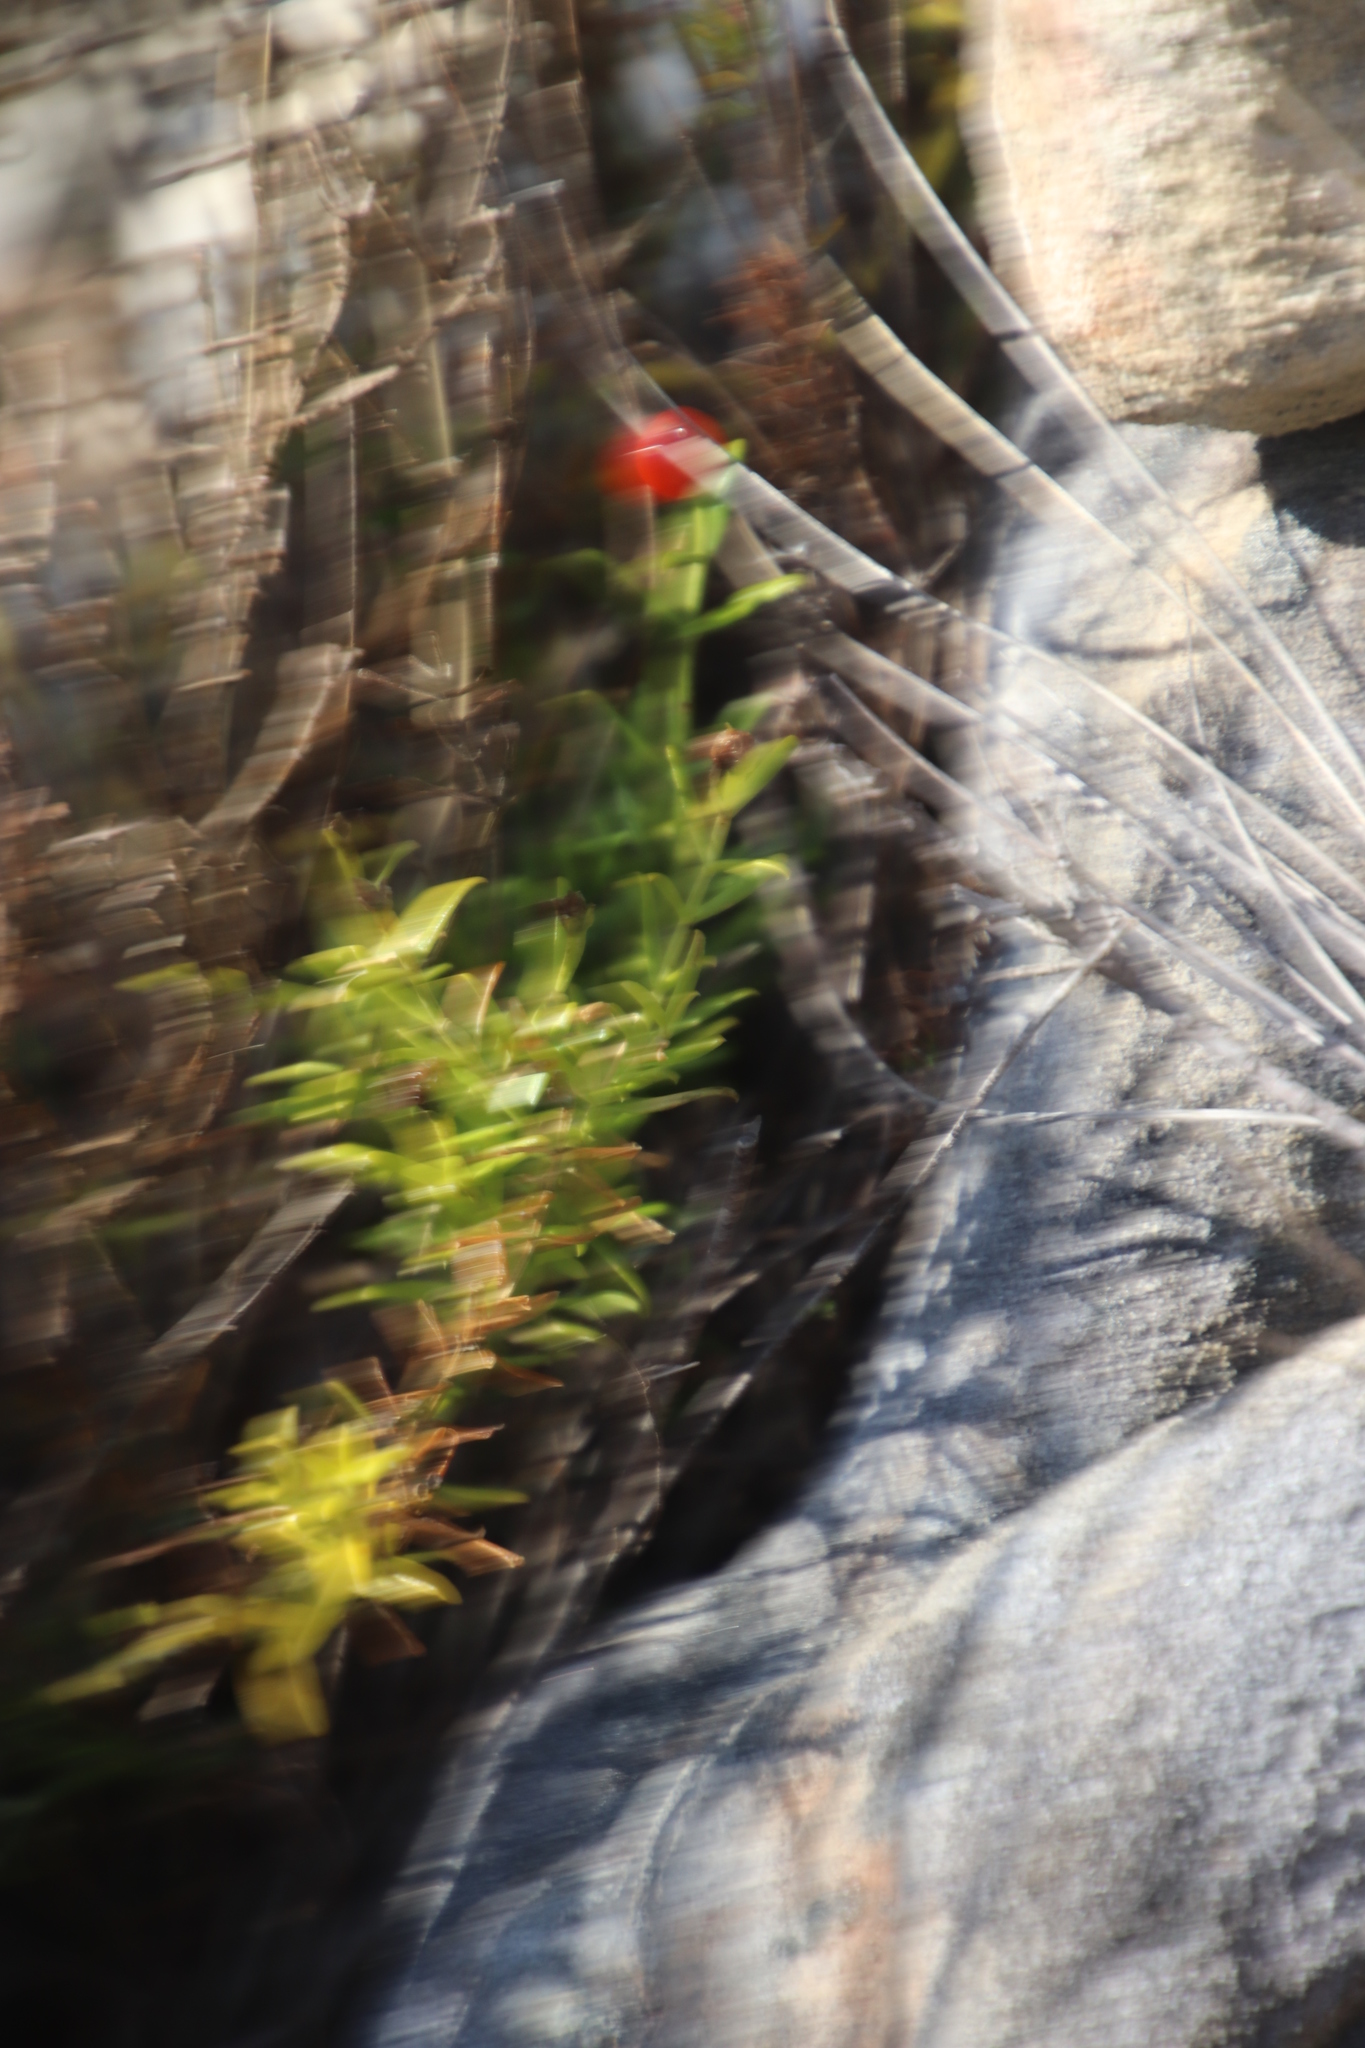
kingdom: Plantae
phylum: Tracheophyta
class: Magnoliopsida
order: Gentianales
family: Gentianaceae
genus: Chironia
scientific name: Chironia baccifera
